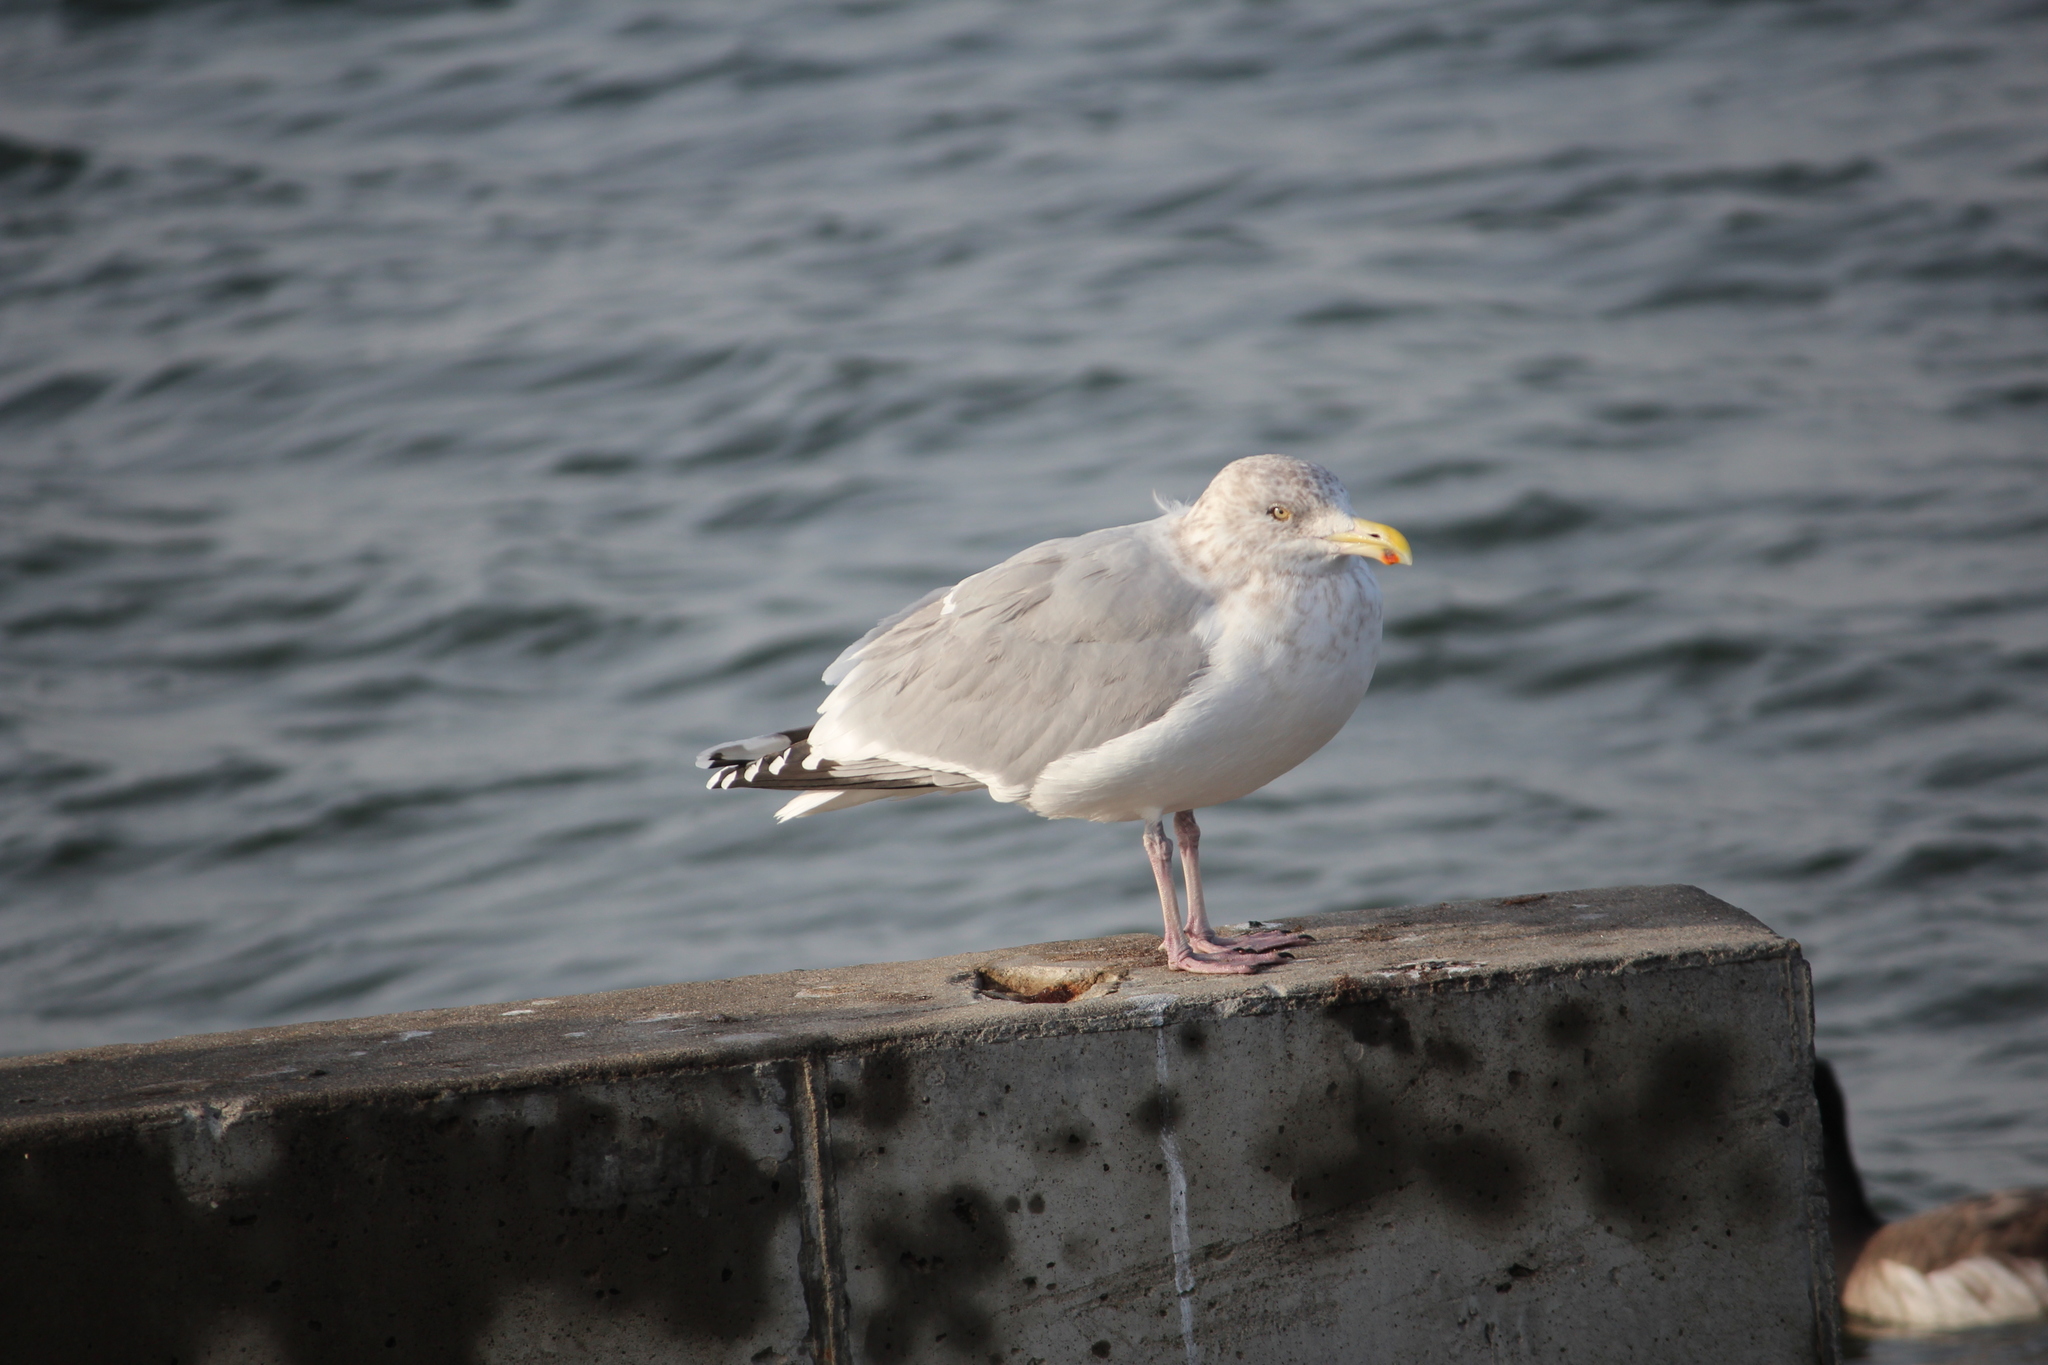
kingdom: Animalia
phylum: Chordata
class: Aves
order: Charadriiformes
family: Laridae
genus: Larus
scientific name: Larus smithsonianus
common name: American herring gull
